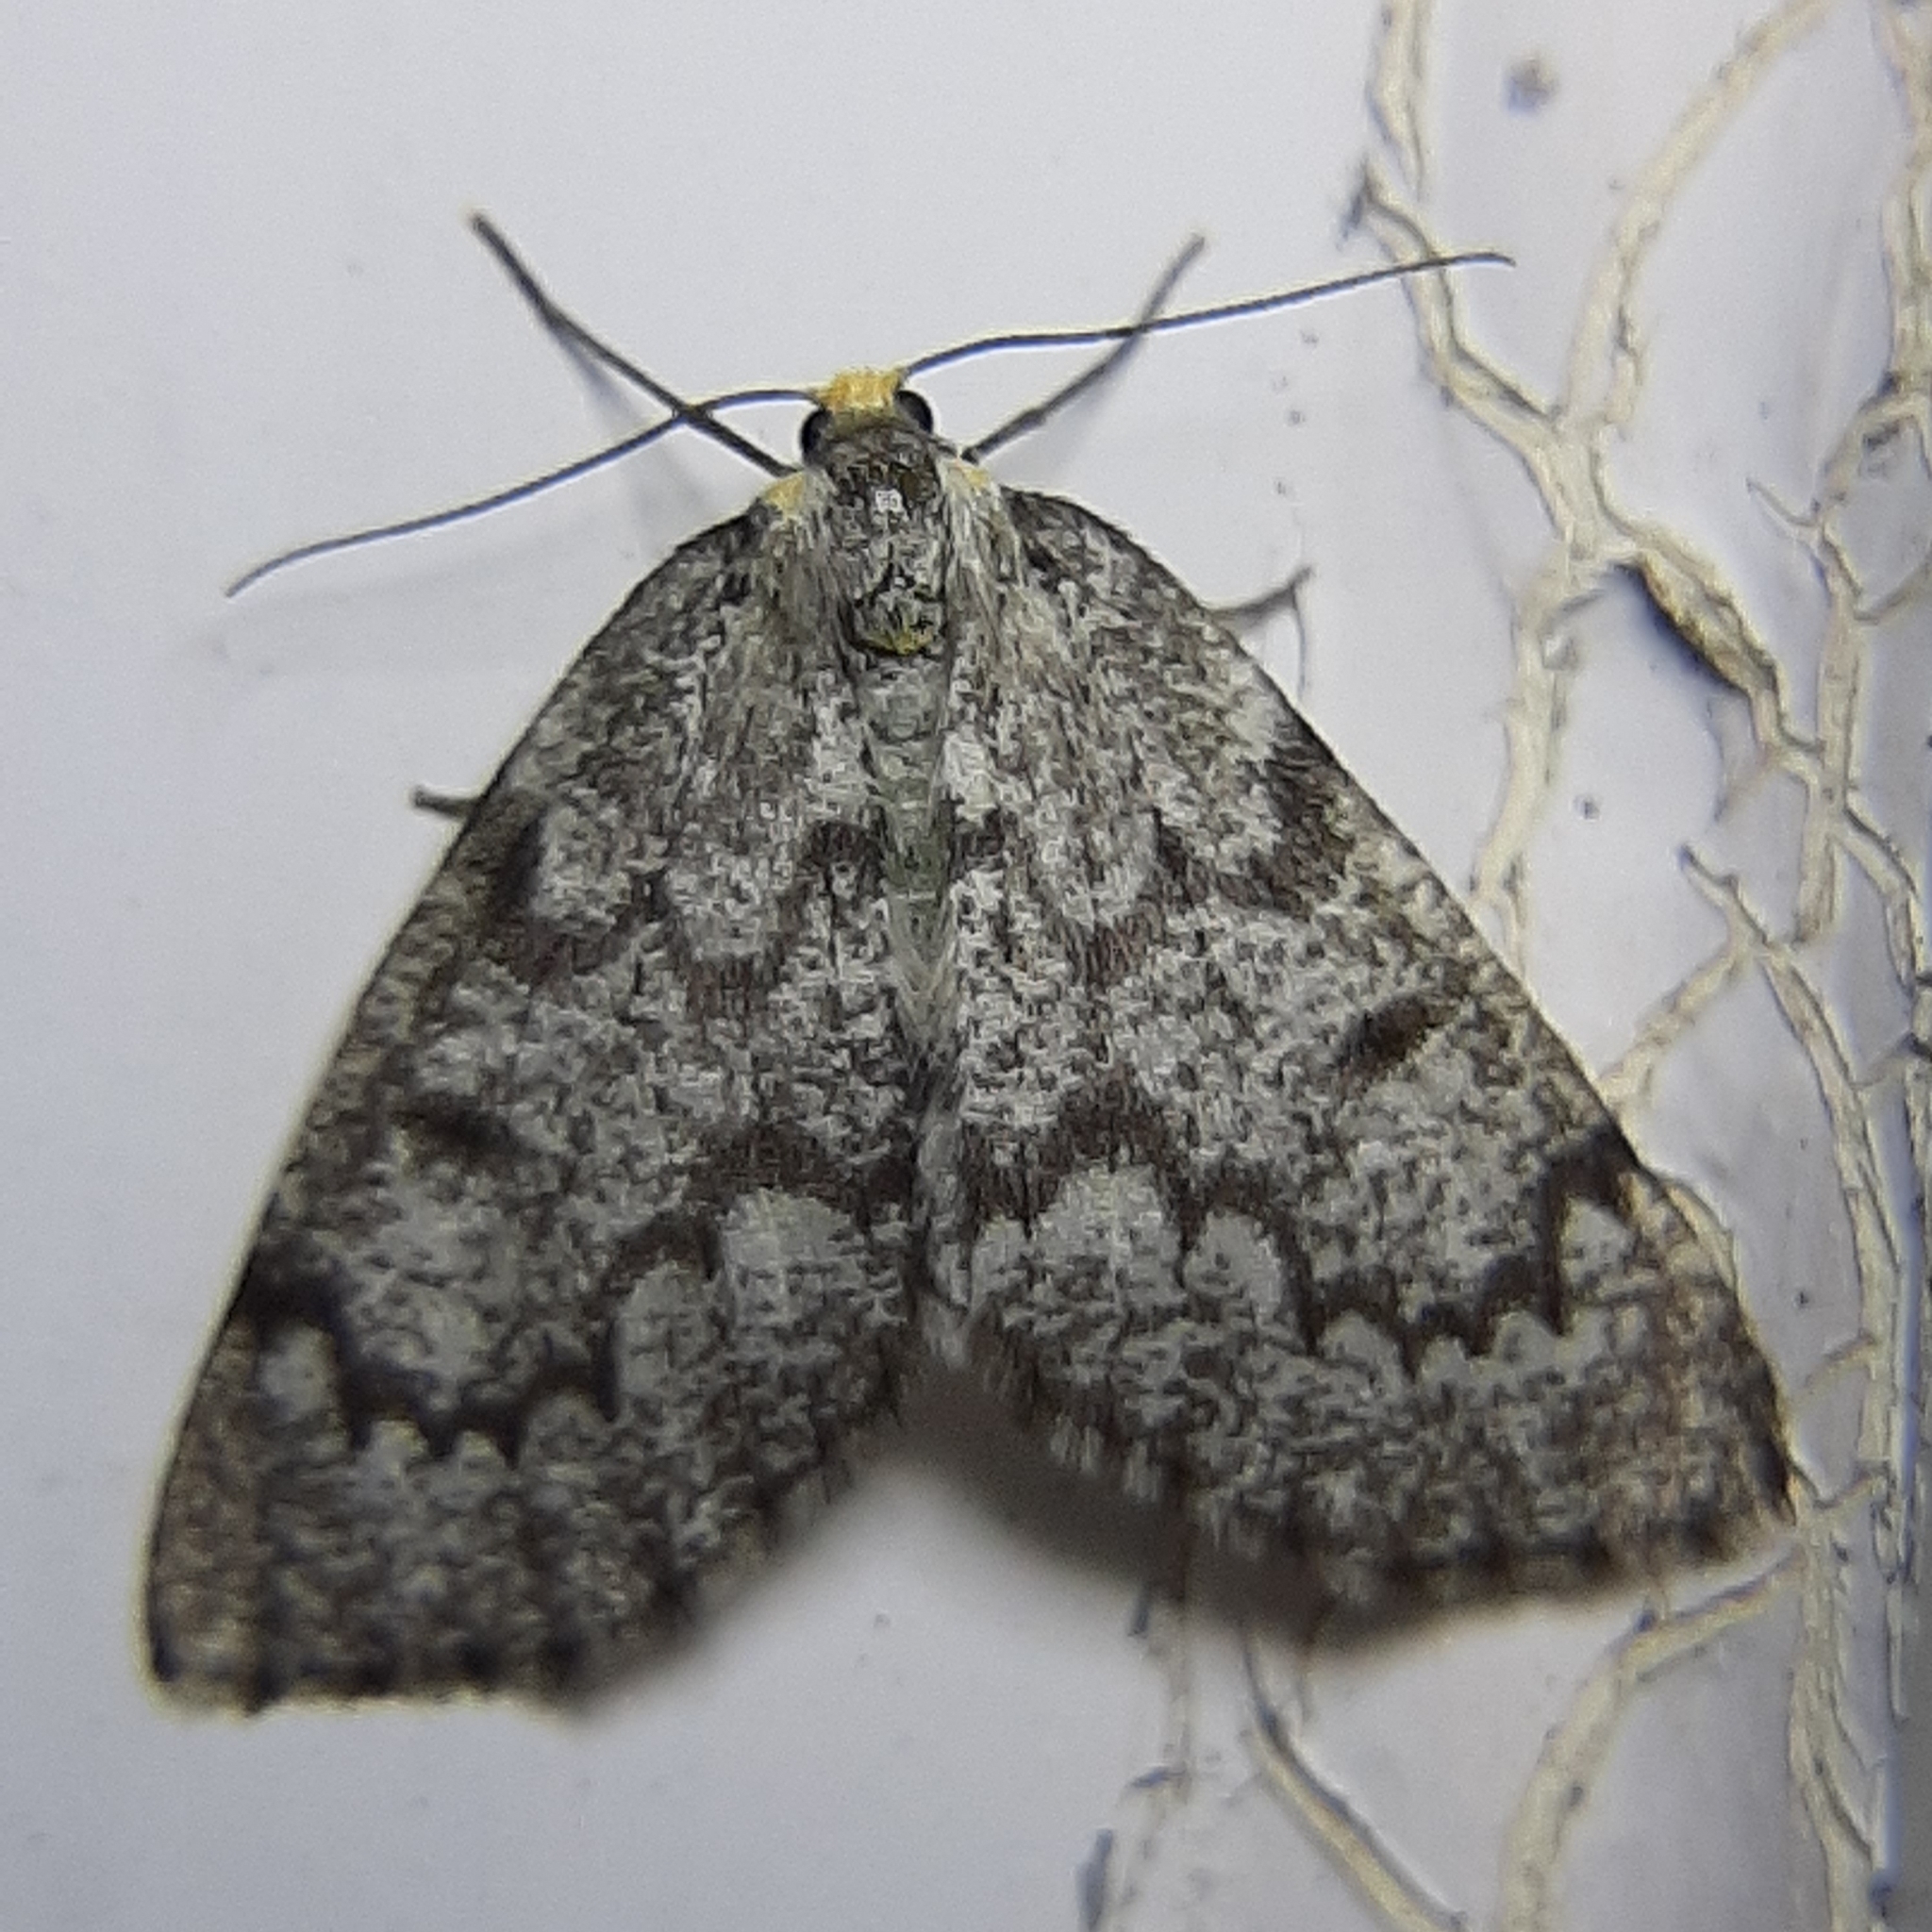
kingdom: Animalia
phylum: Arthropoda
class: Insecta
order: Lepidoptera
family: Geometridae
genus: Nepytia
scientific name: Nepytia canosaria
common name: False hemlock looper
